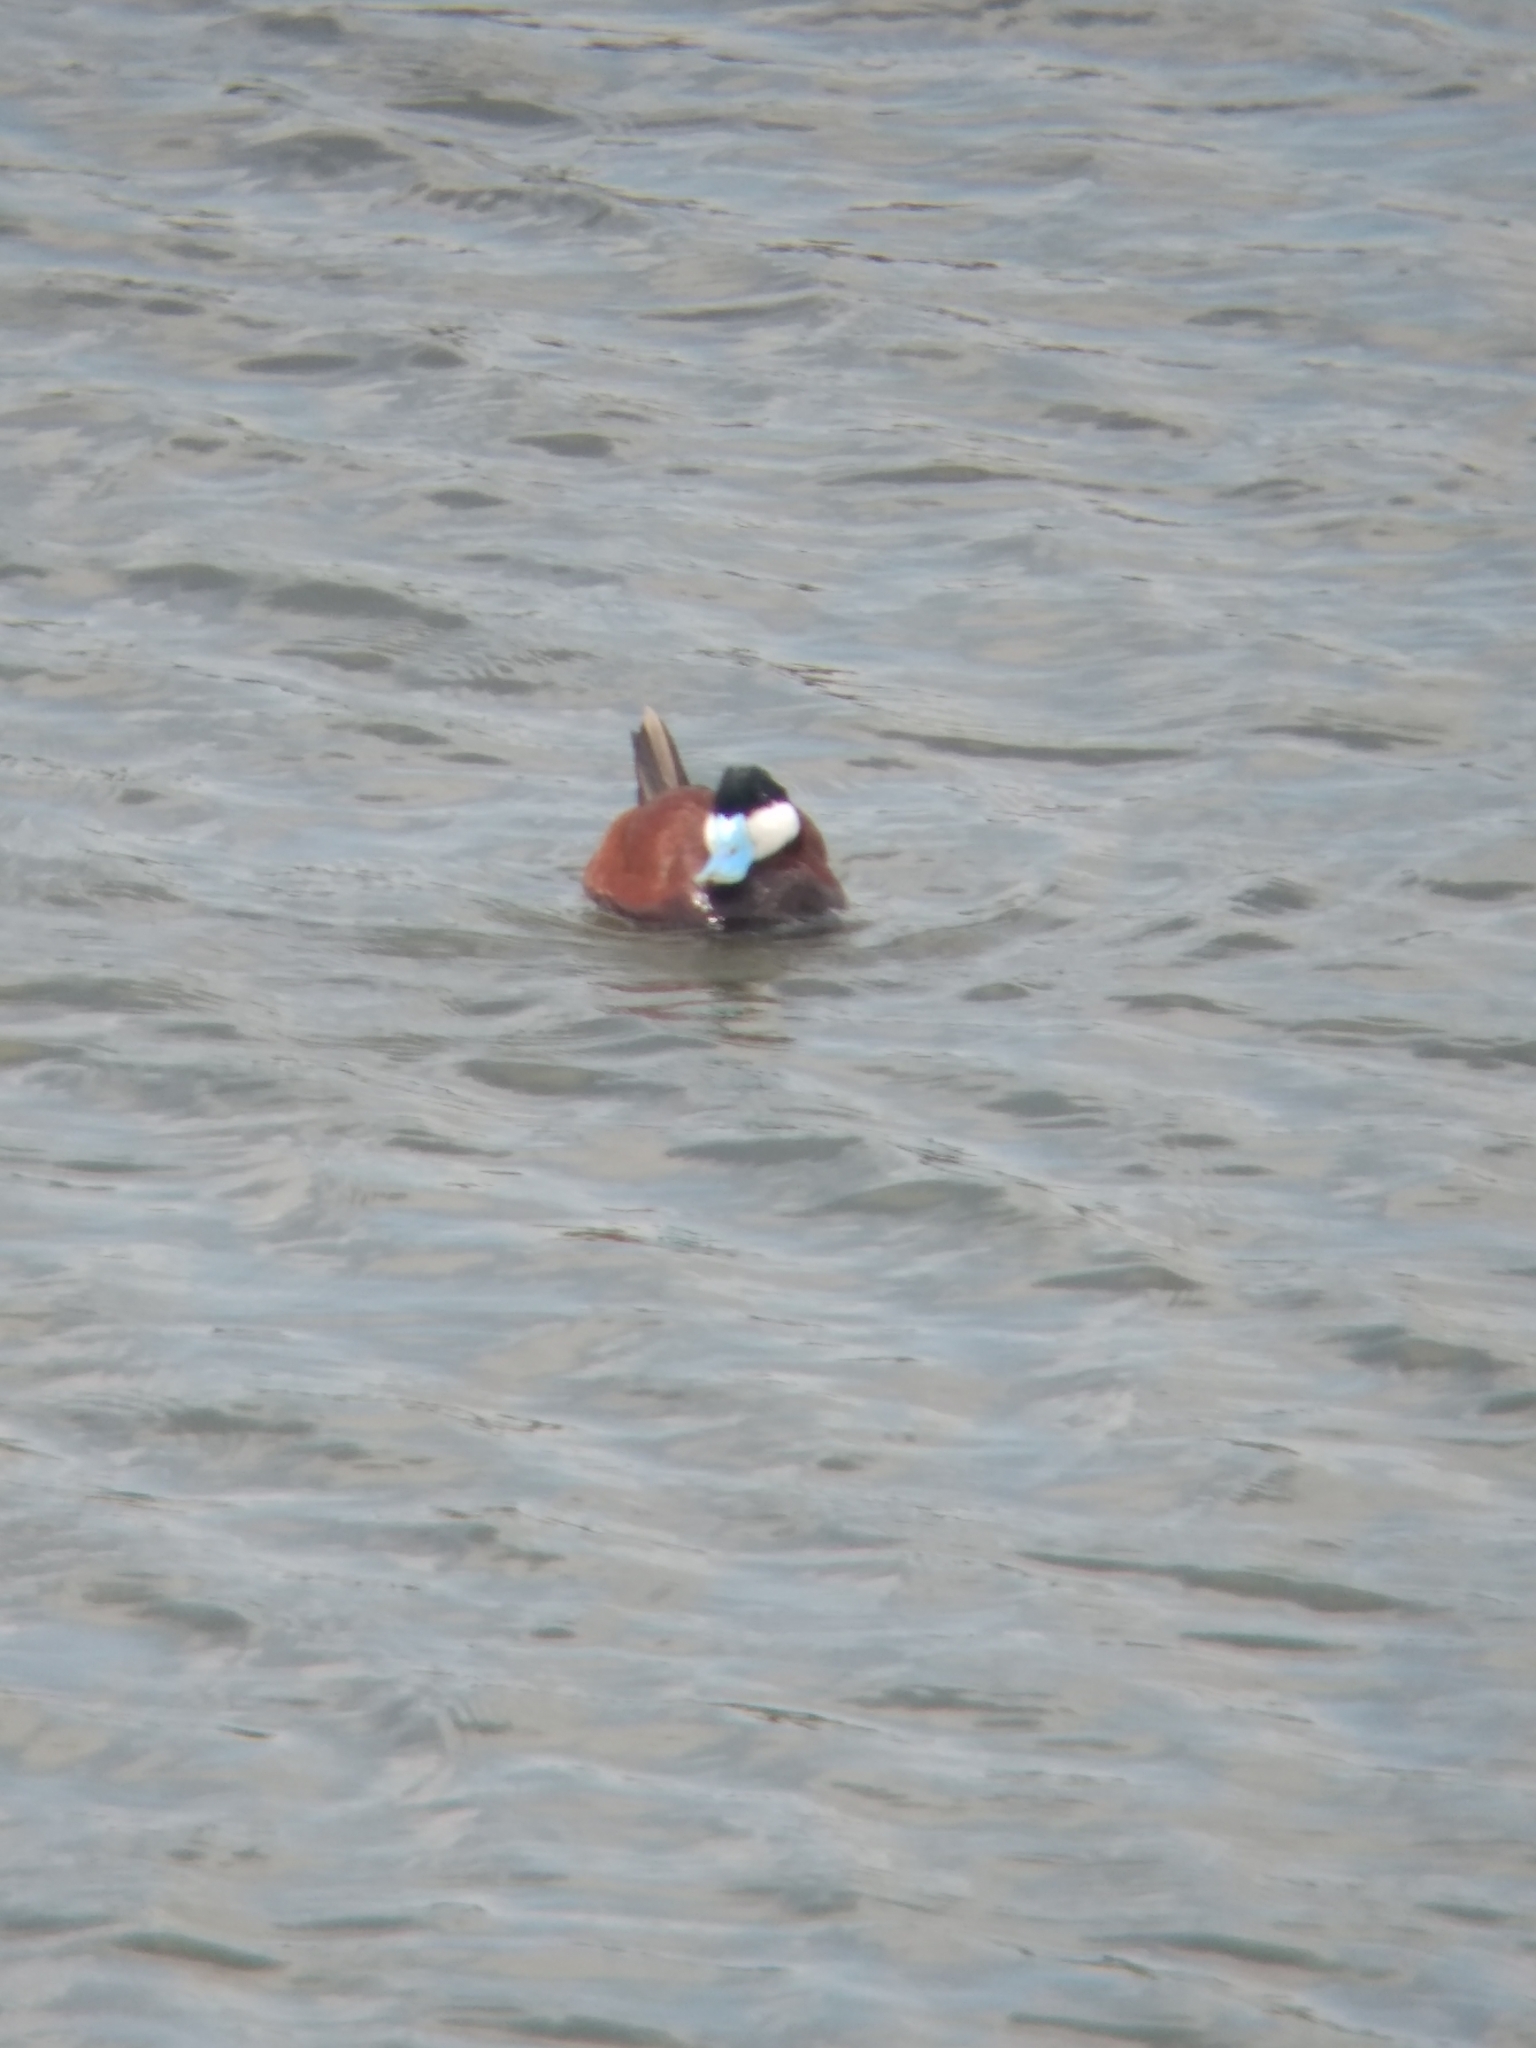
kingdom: Animalia
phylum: Chordata
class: Aves
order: Anseriformes
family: Anatidae
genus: Oxyura
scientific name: Oxyura jamaicensis
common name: Ruddy duck
